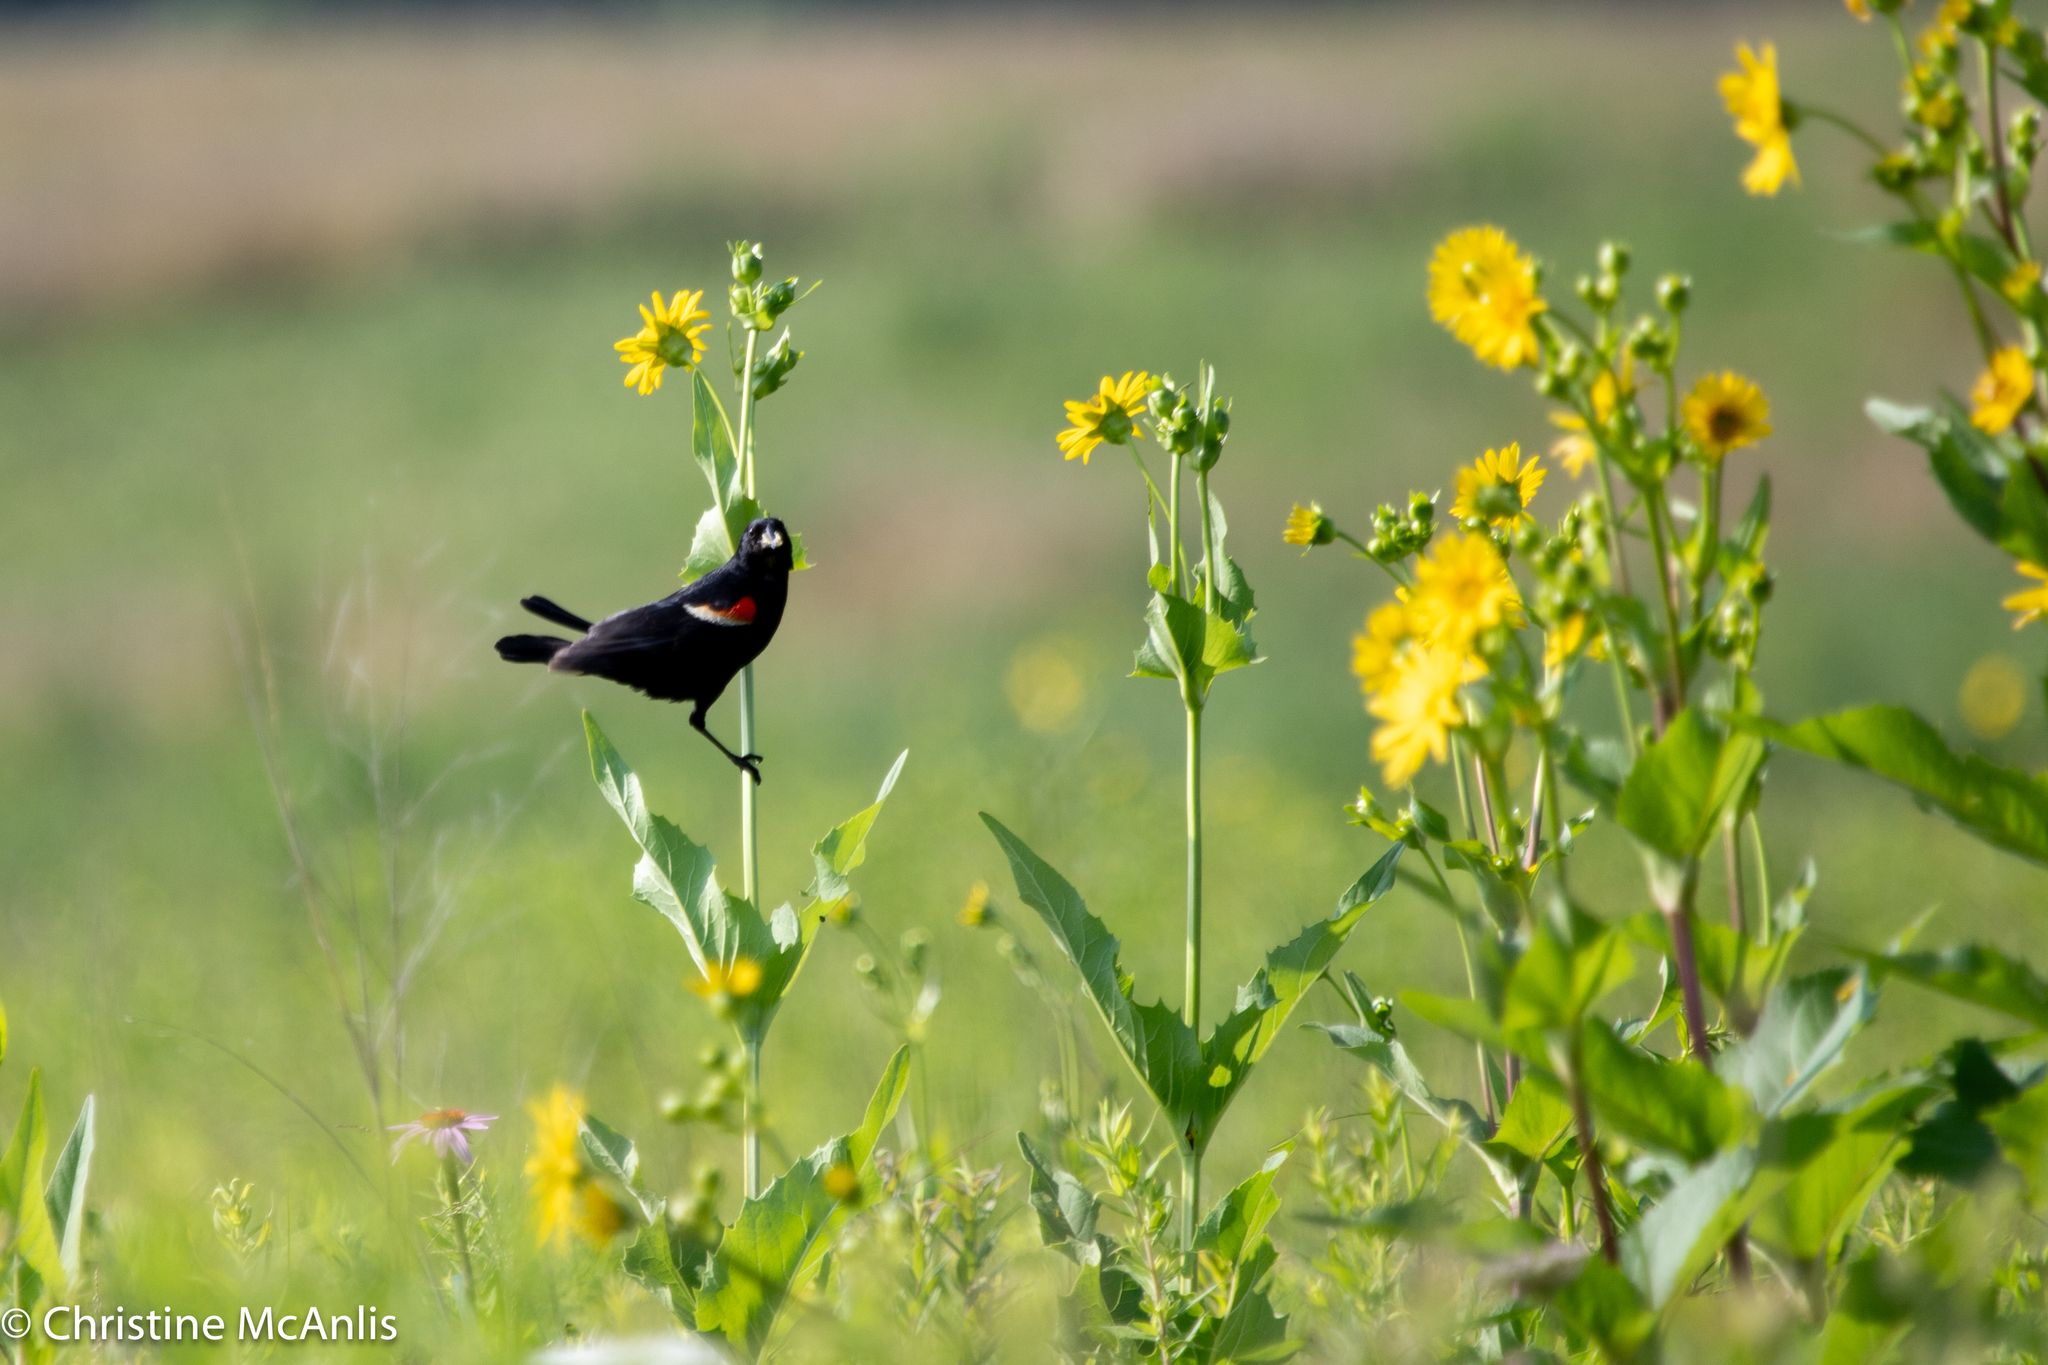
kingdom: Animalia
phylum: Chordata
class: Aves
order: Passeriformes
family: Icteridae
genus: Agelaius
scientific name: Agelaius phoeniceus
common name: Red-winged blackbird
